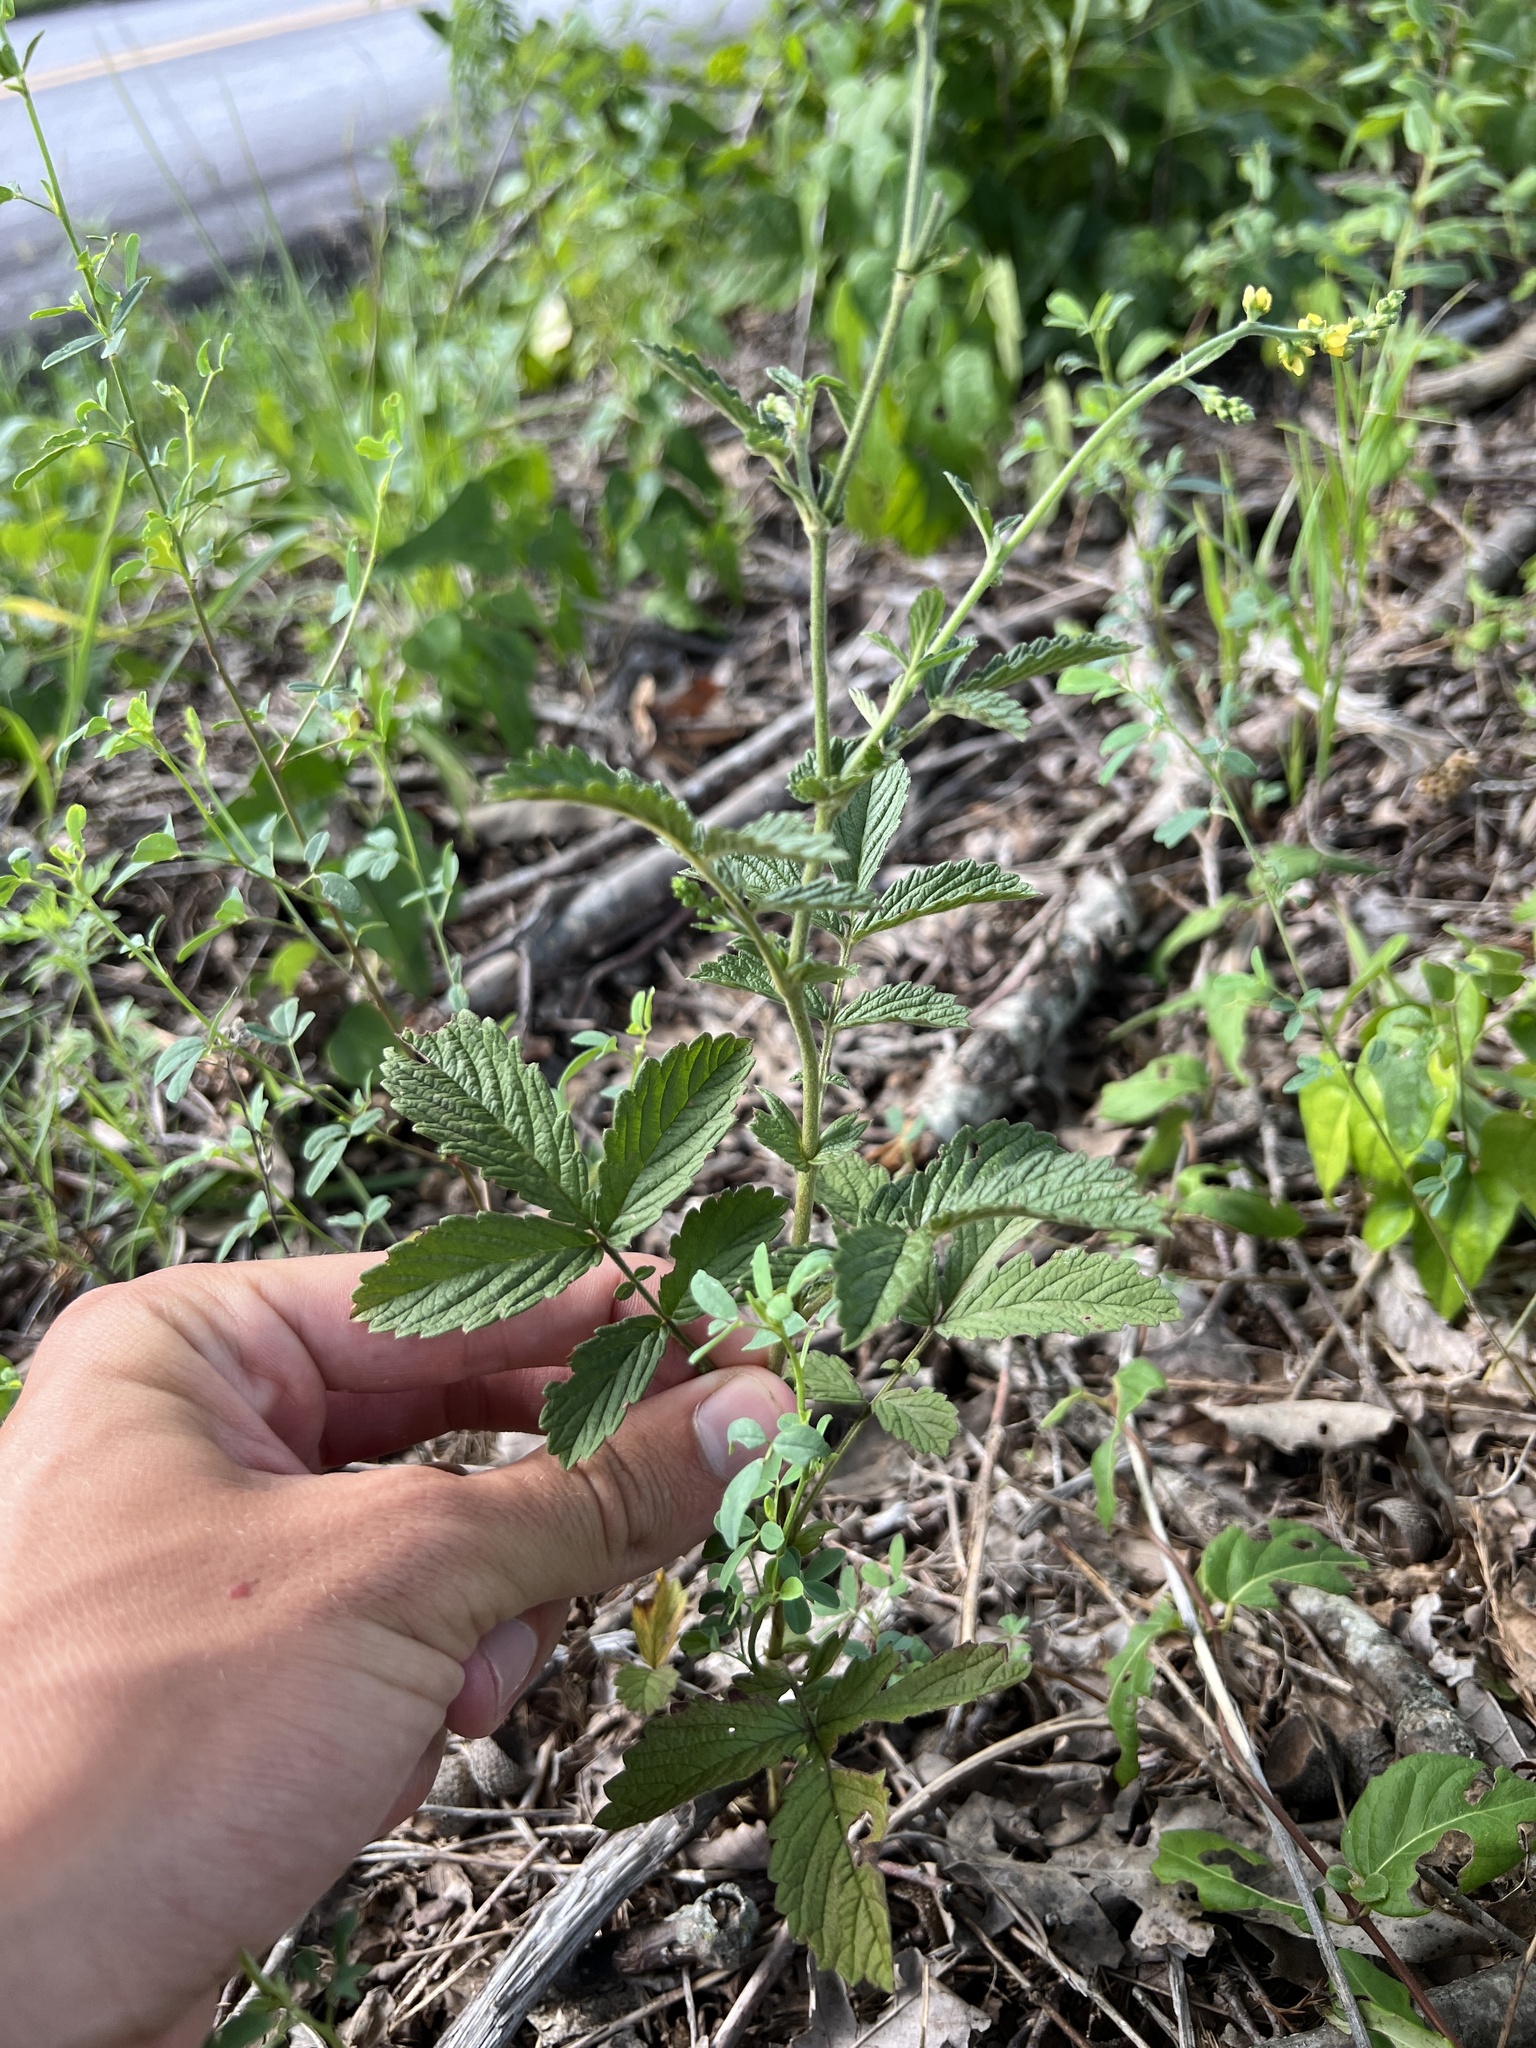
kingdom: Plantae
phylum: Tracheophyta
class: Magnoliopsida
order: Rosales
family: Rosaceae
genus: Agrimonia
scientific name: Agrimonia pubescens
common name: Downy agrimony
